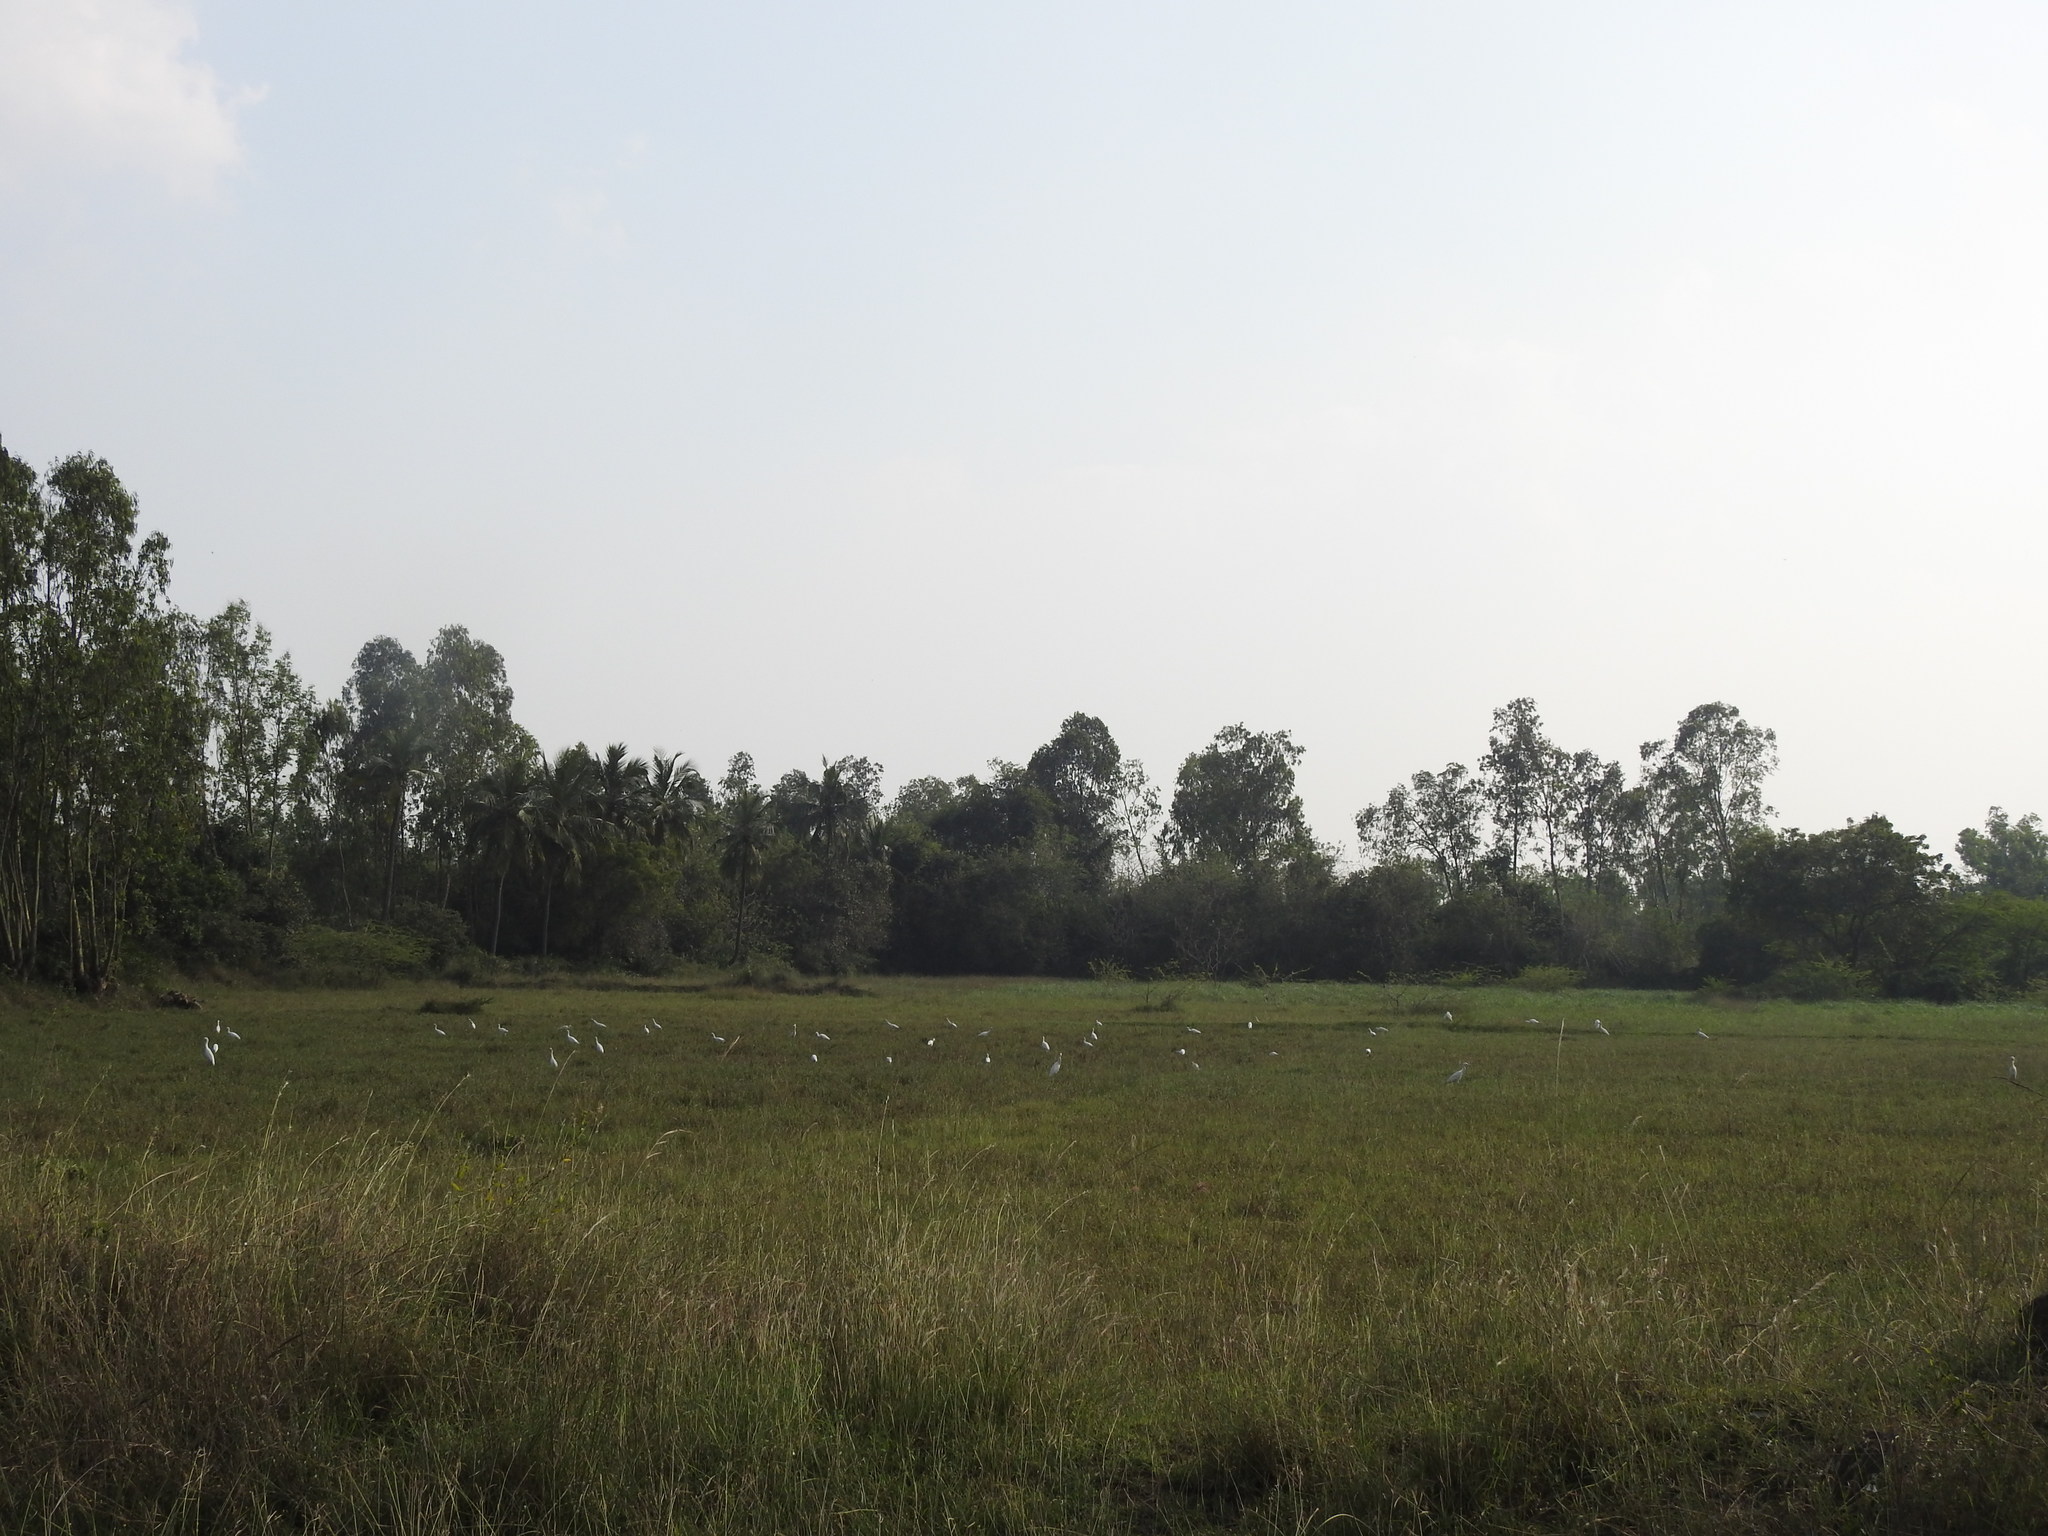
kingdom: Animalia
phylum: Chordata
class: Aves
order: Pelecaniformes
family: Ardeidae
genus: Bubulcus
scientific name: Bubulcus coromandus
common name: Eastern cattle egret
